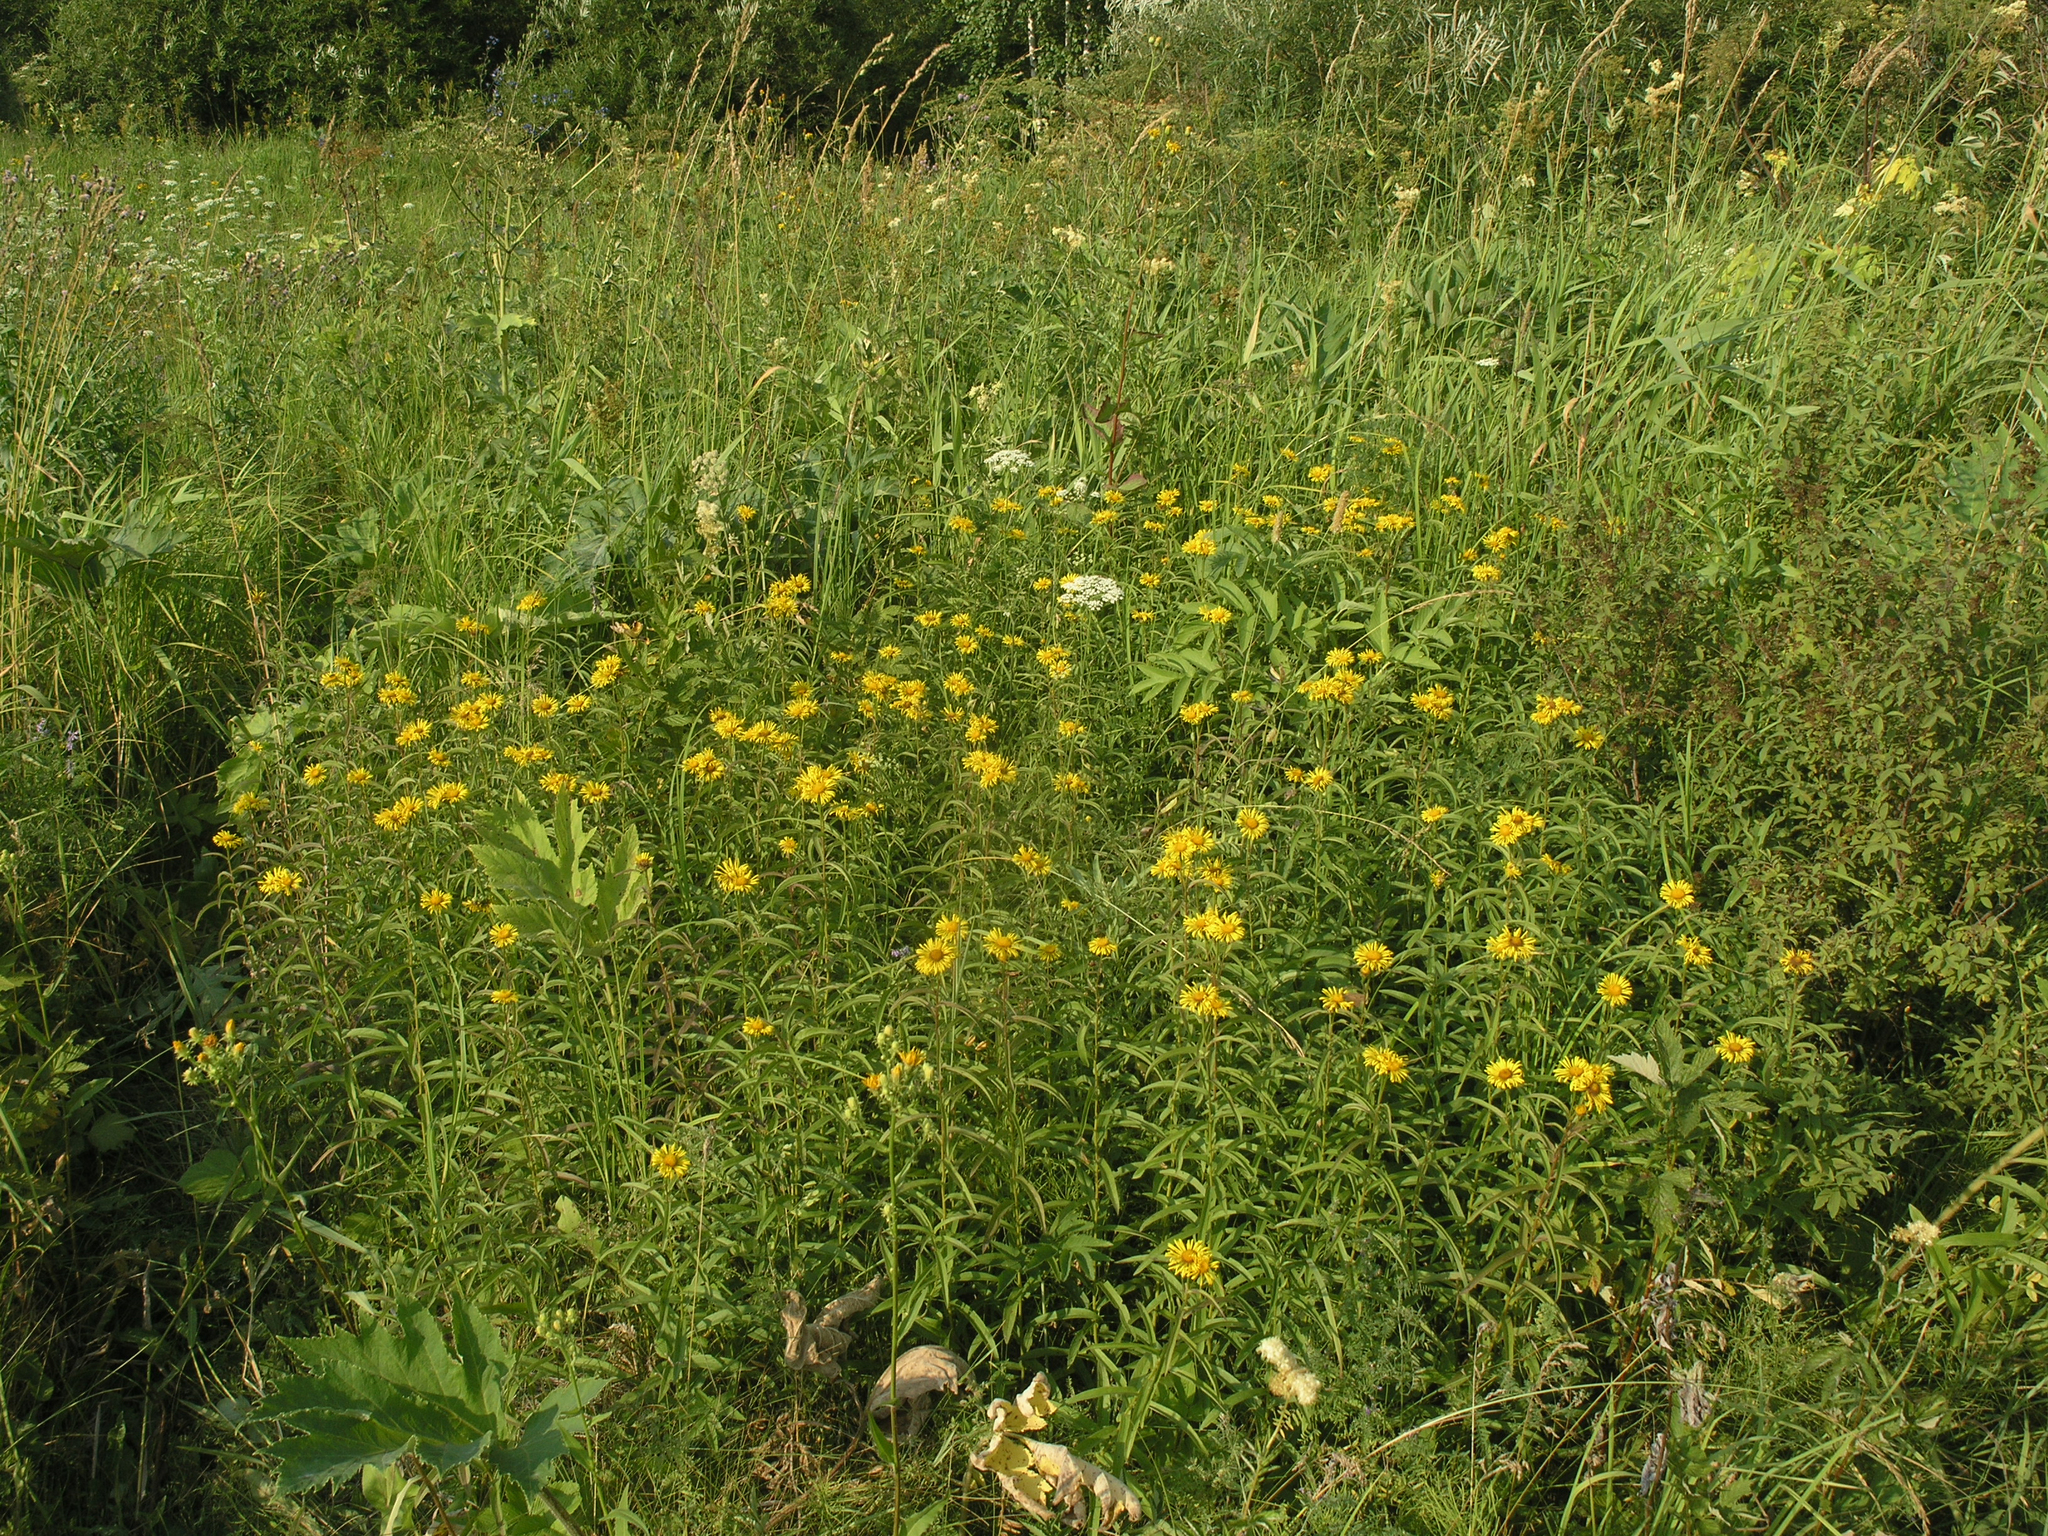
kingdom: Plantae
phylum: Tracheophyta
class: Magnoliopsida
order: Asterales
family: Asteraceae
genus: Pentanema
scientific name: Pentanema salicinum
